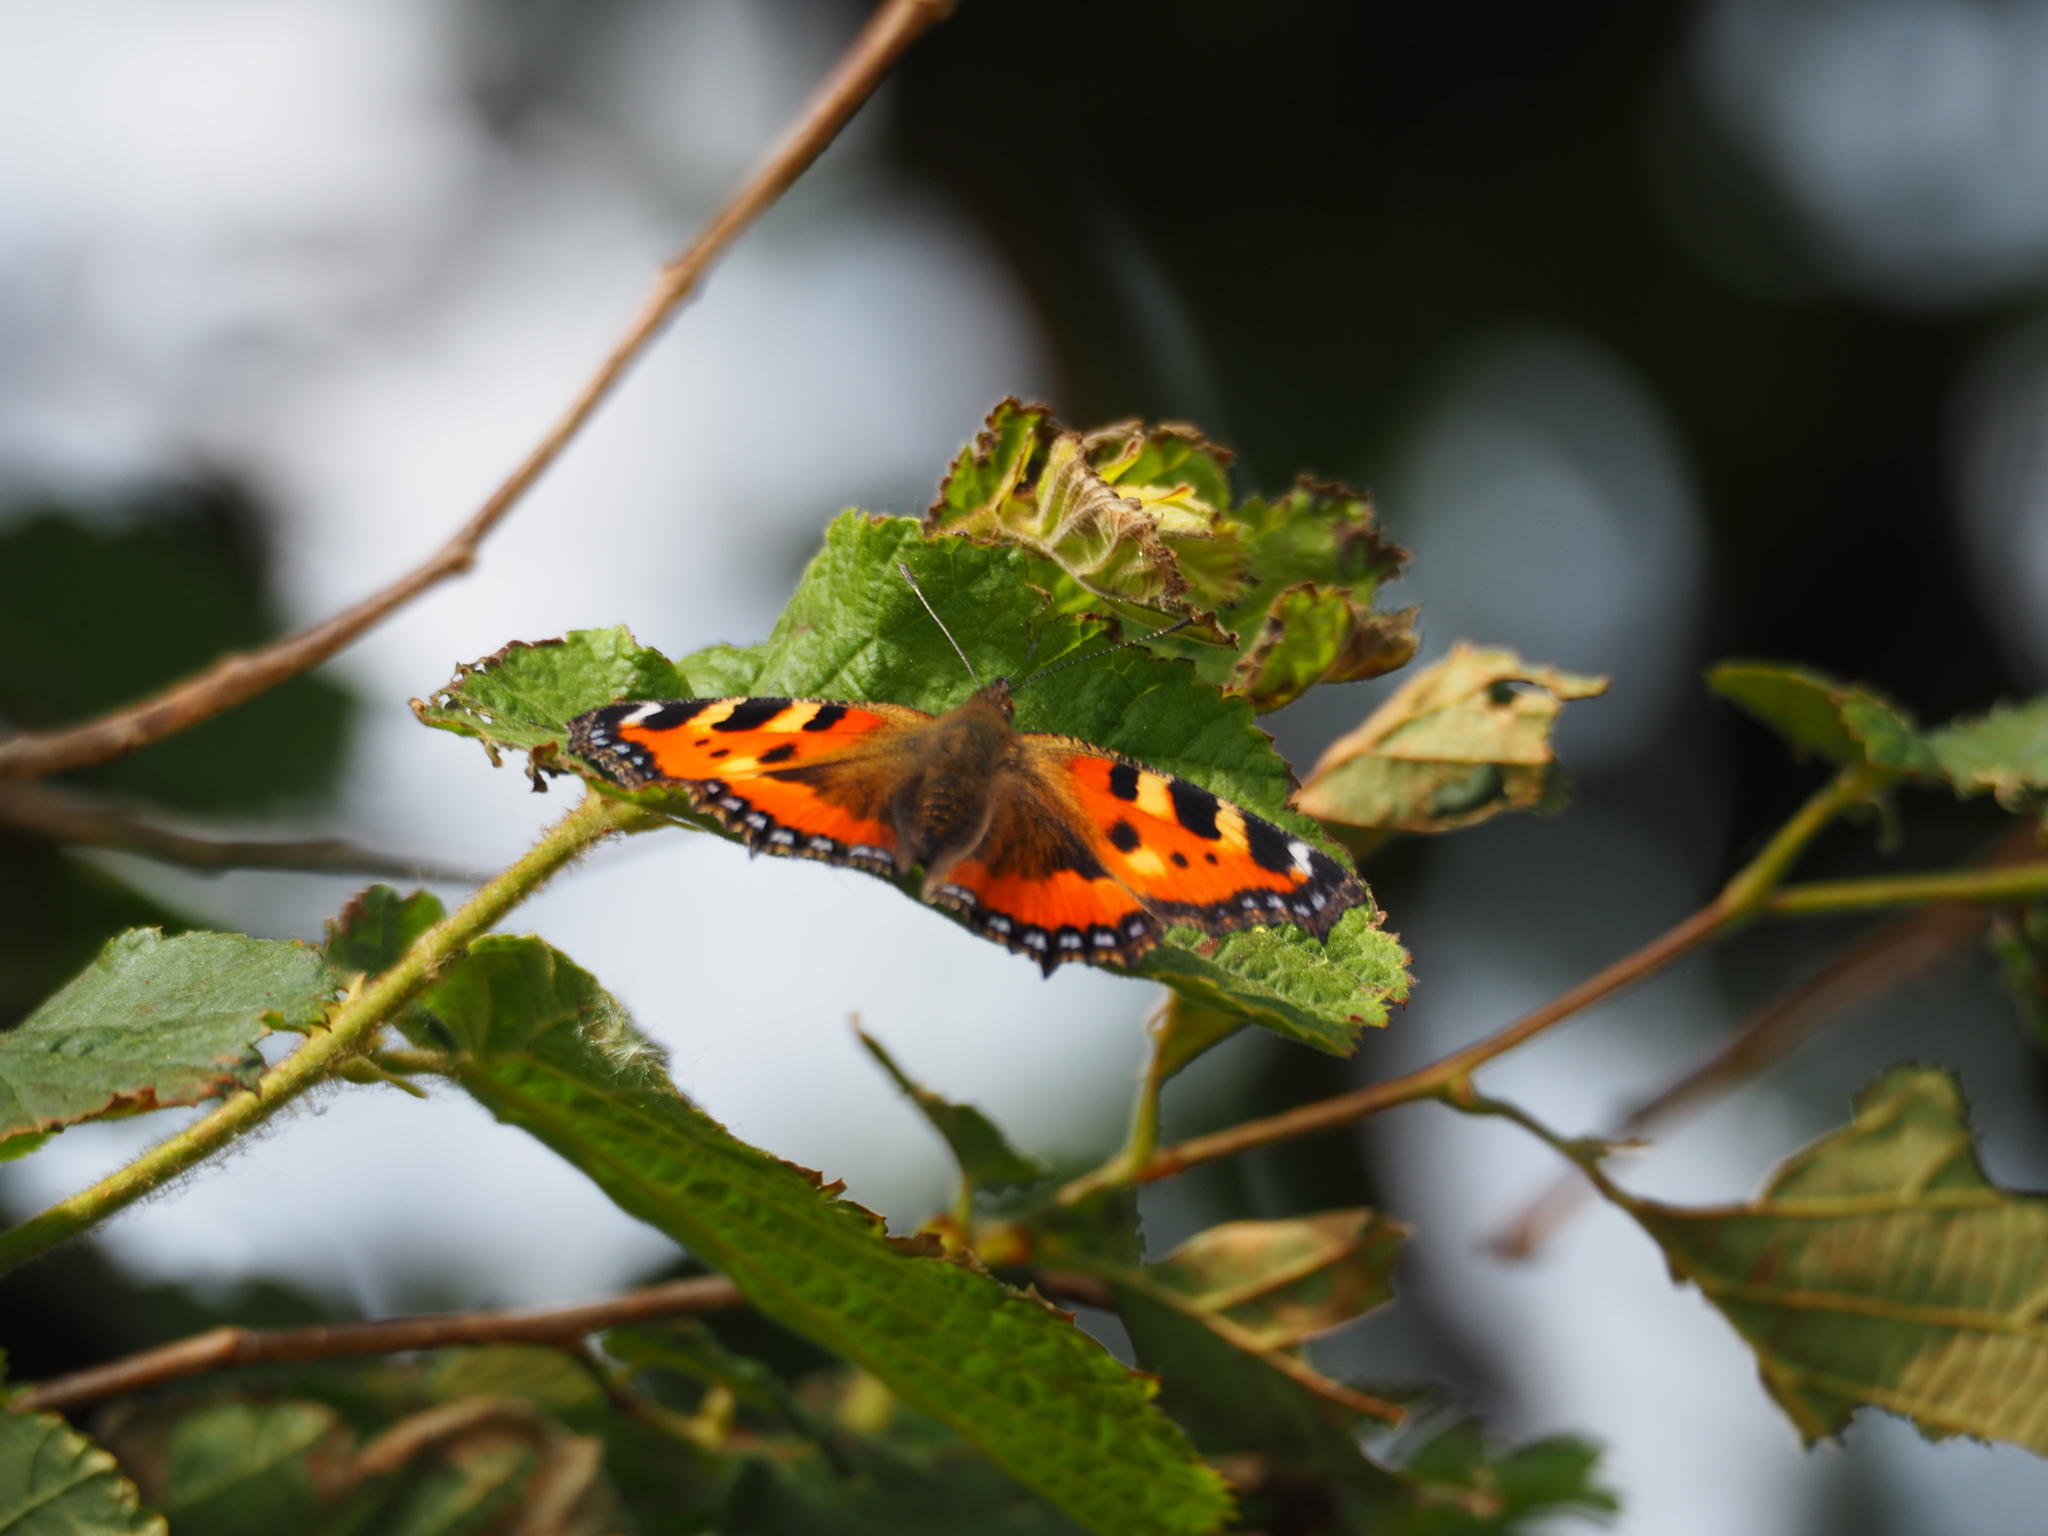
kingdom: Animalia
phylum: Arthropoda
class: Insecta
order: Lepidoptera
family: Nymphalidae
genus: Aglais
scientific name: Aglais urticae
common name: Small tortoiseshell
